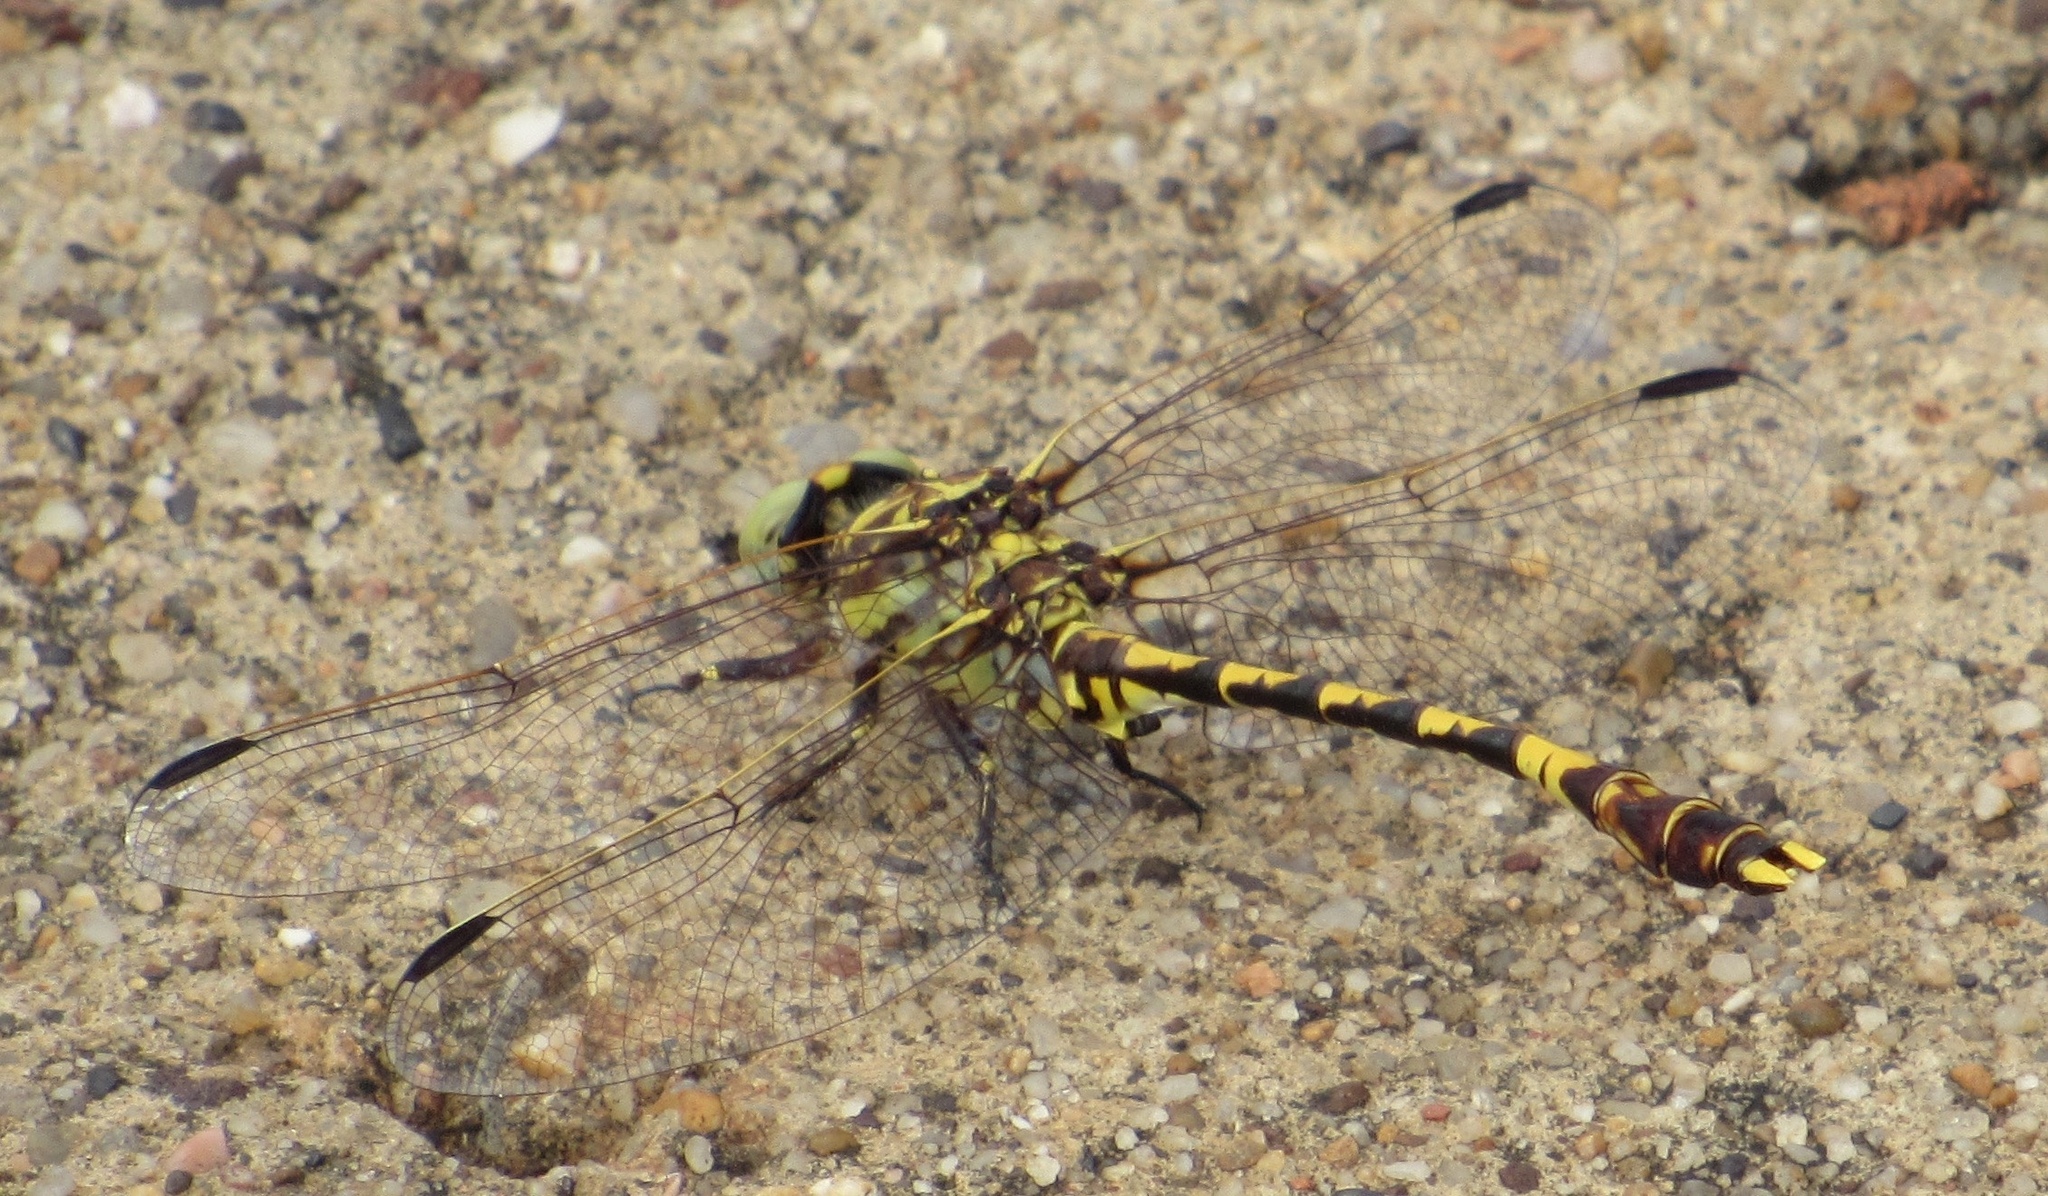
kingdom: Animalia
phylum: Arthropoda
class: Insecta
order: Odonata
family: Gomphidae
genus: Progomphus
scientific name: Progomphus obscurus
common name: Common sanddragon
